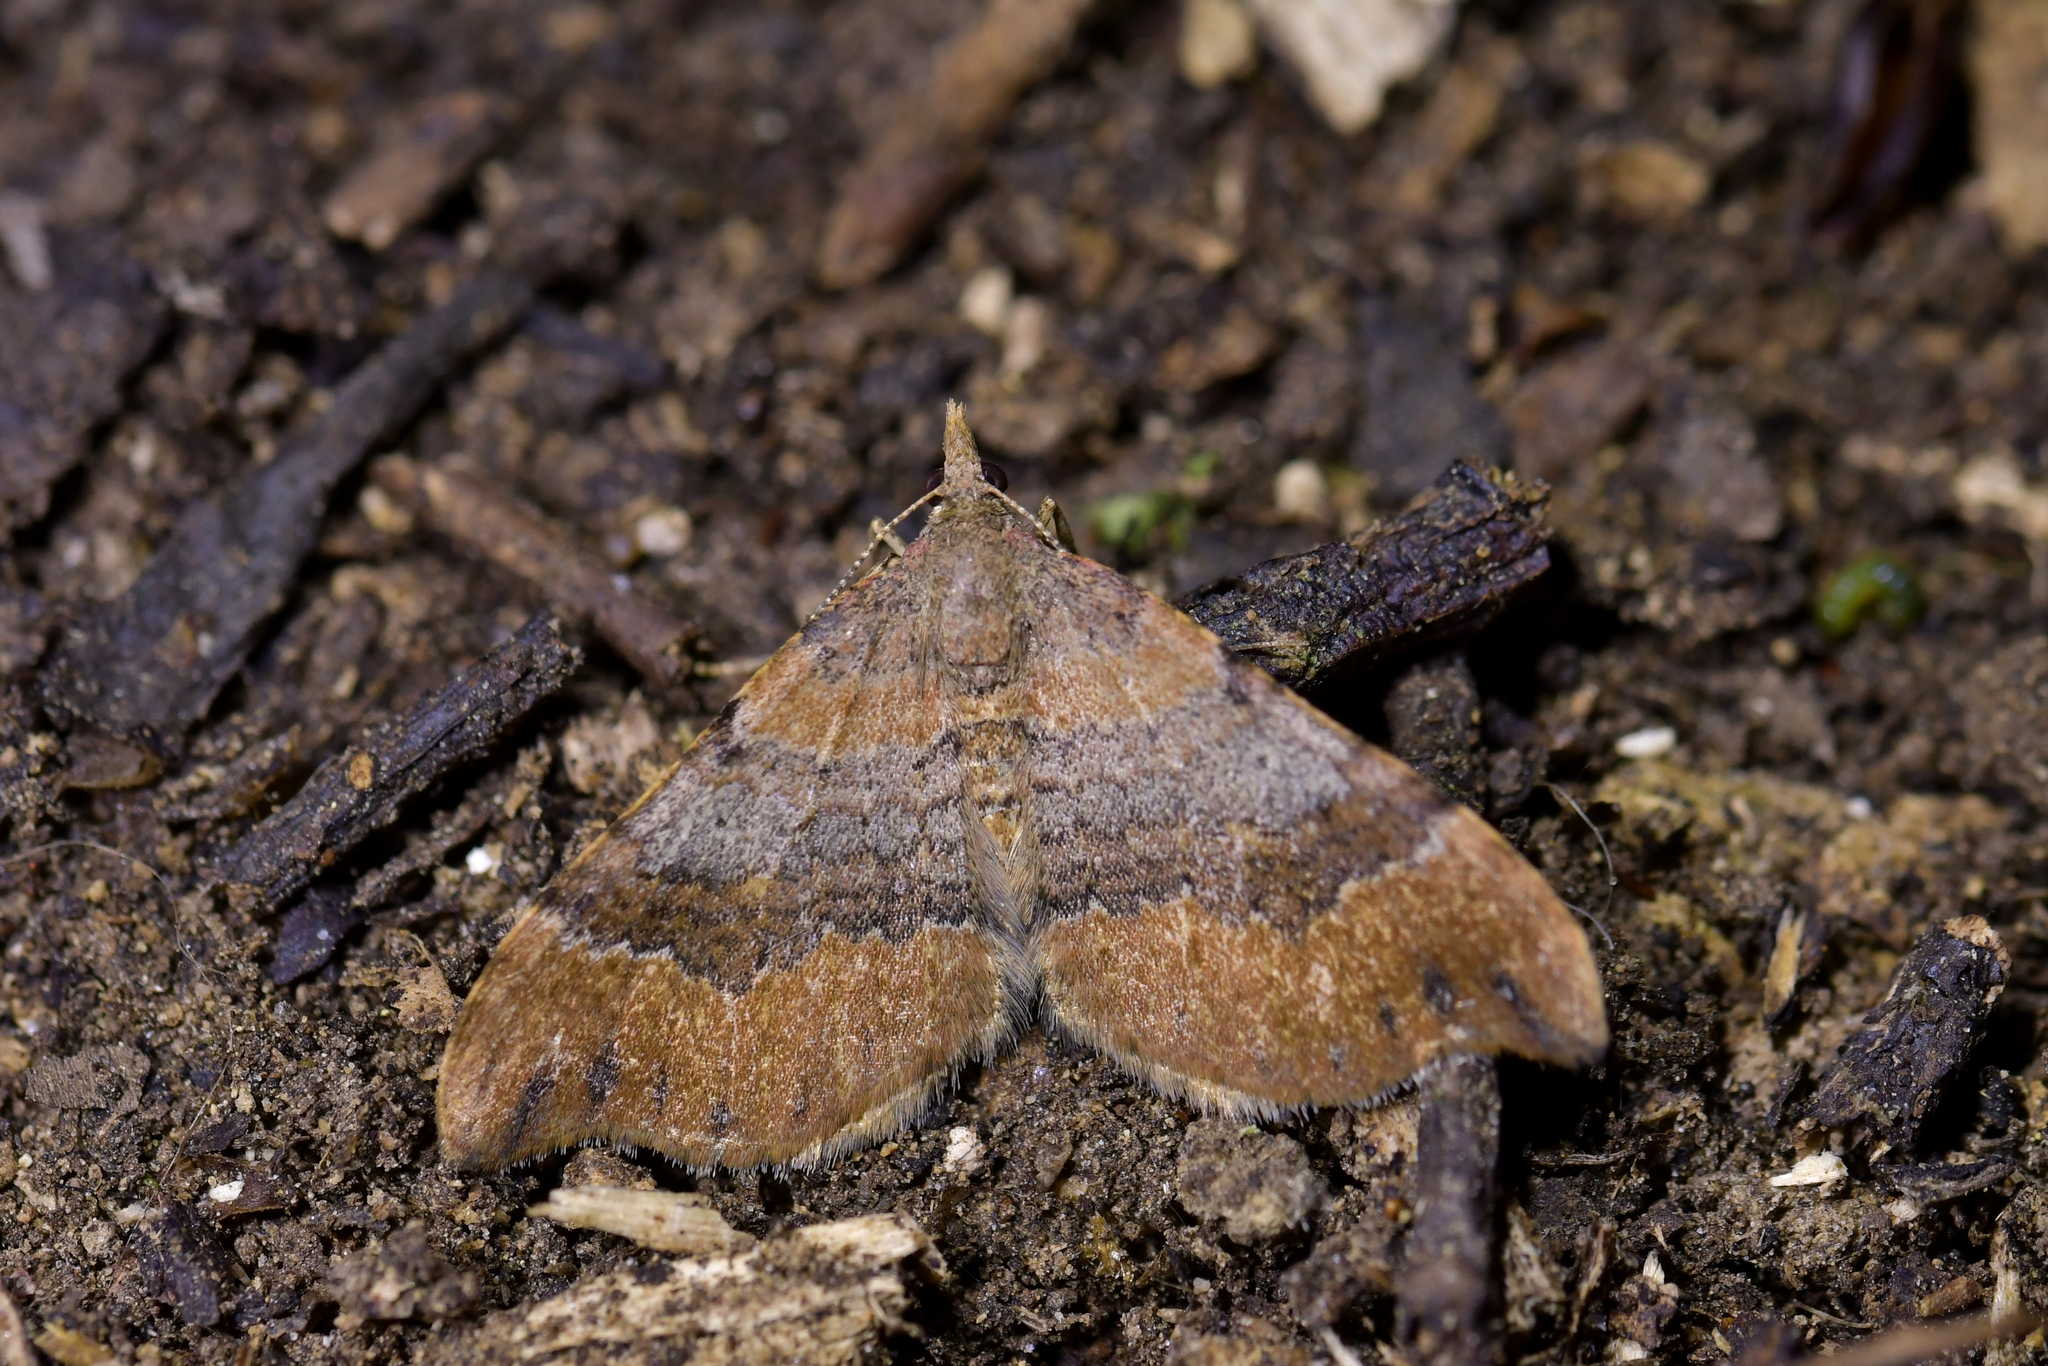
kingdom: Animalia
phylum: Arthropoda
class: Insecta
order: Lepidoptera
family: Geometridae
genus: Homodotis
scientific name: Homodotis megaspilata
